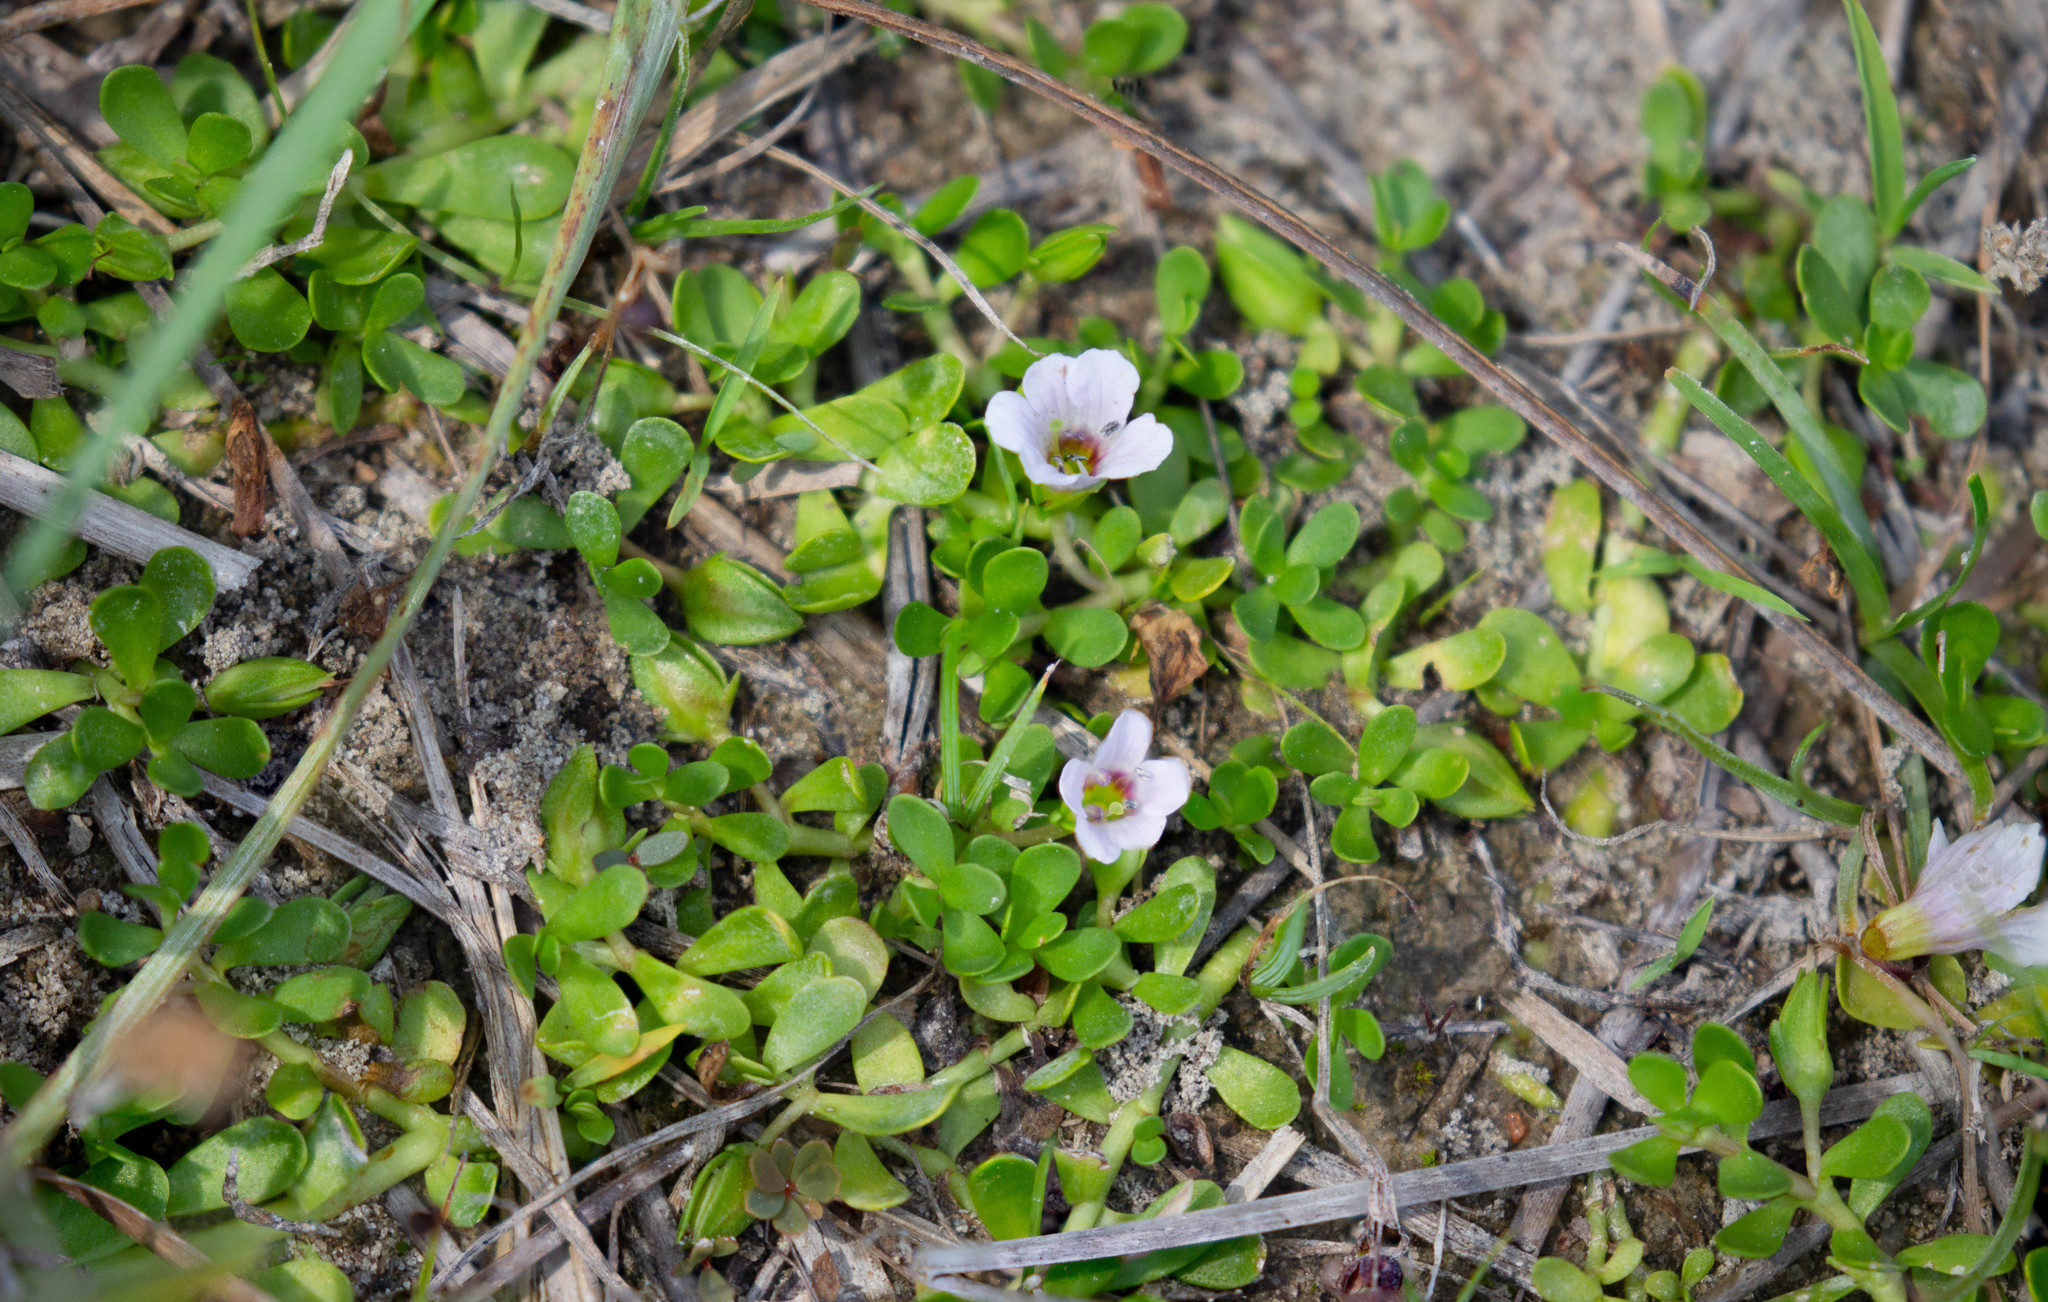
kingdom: Plantae
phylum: Tracheophyta
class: Magnoliopsida
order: Lamiales
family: Plantaginaceae
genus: Bacopa
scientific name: Bacopa monnieri
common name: Indian-pennywort
